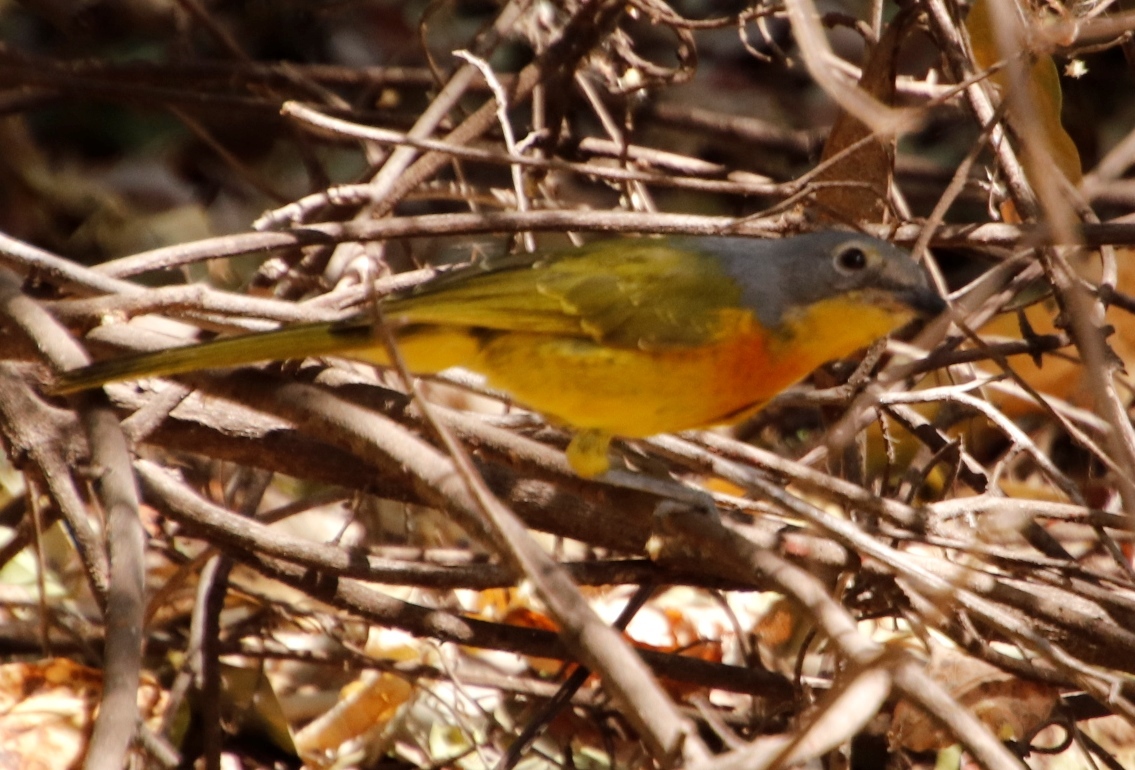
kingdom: Animalia
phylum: Chordata
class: Aves
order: Passeriformes
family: Malaconotidae
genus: Chlorophoneus
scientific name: Chlorophoneus sulfureopectus
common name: Orange-breasted bushshrike
